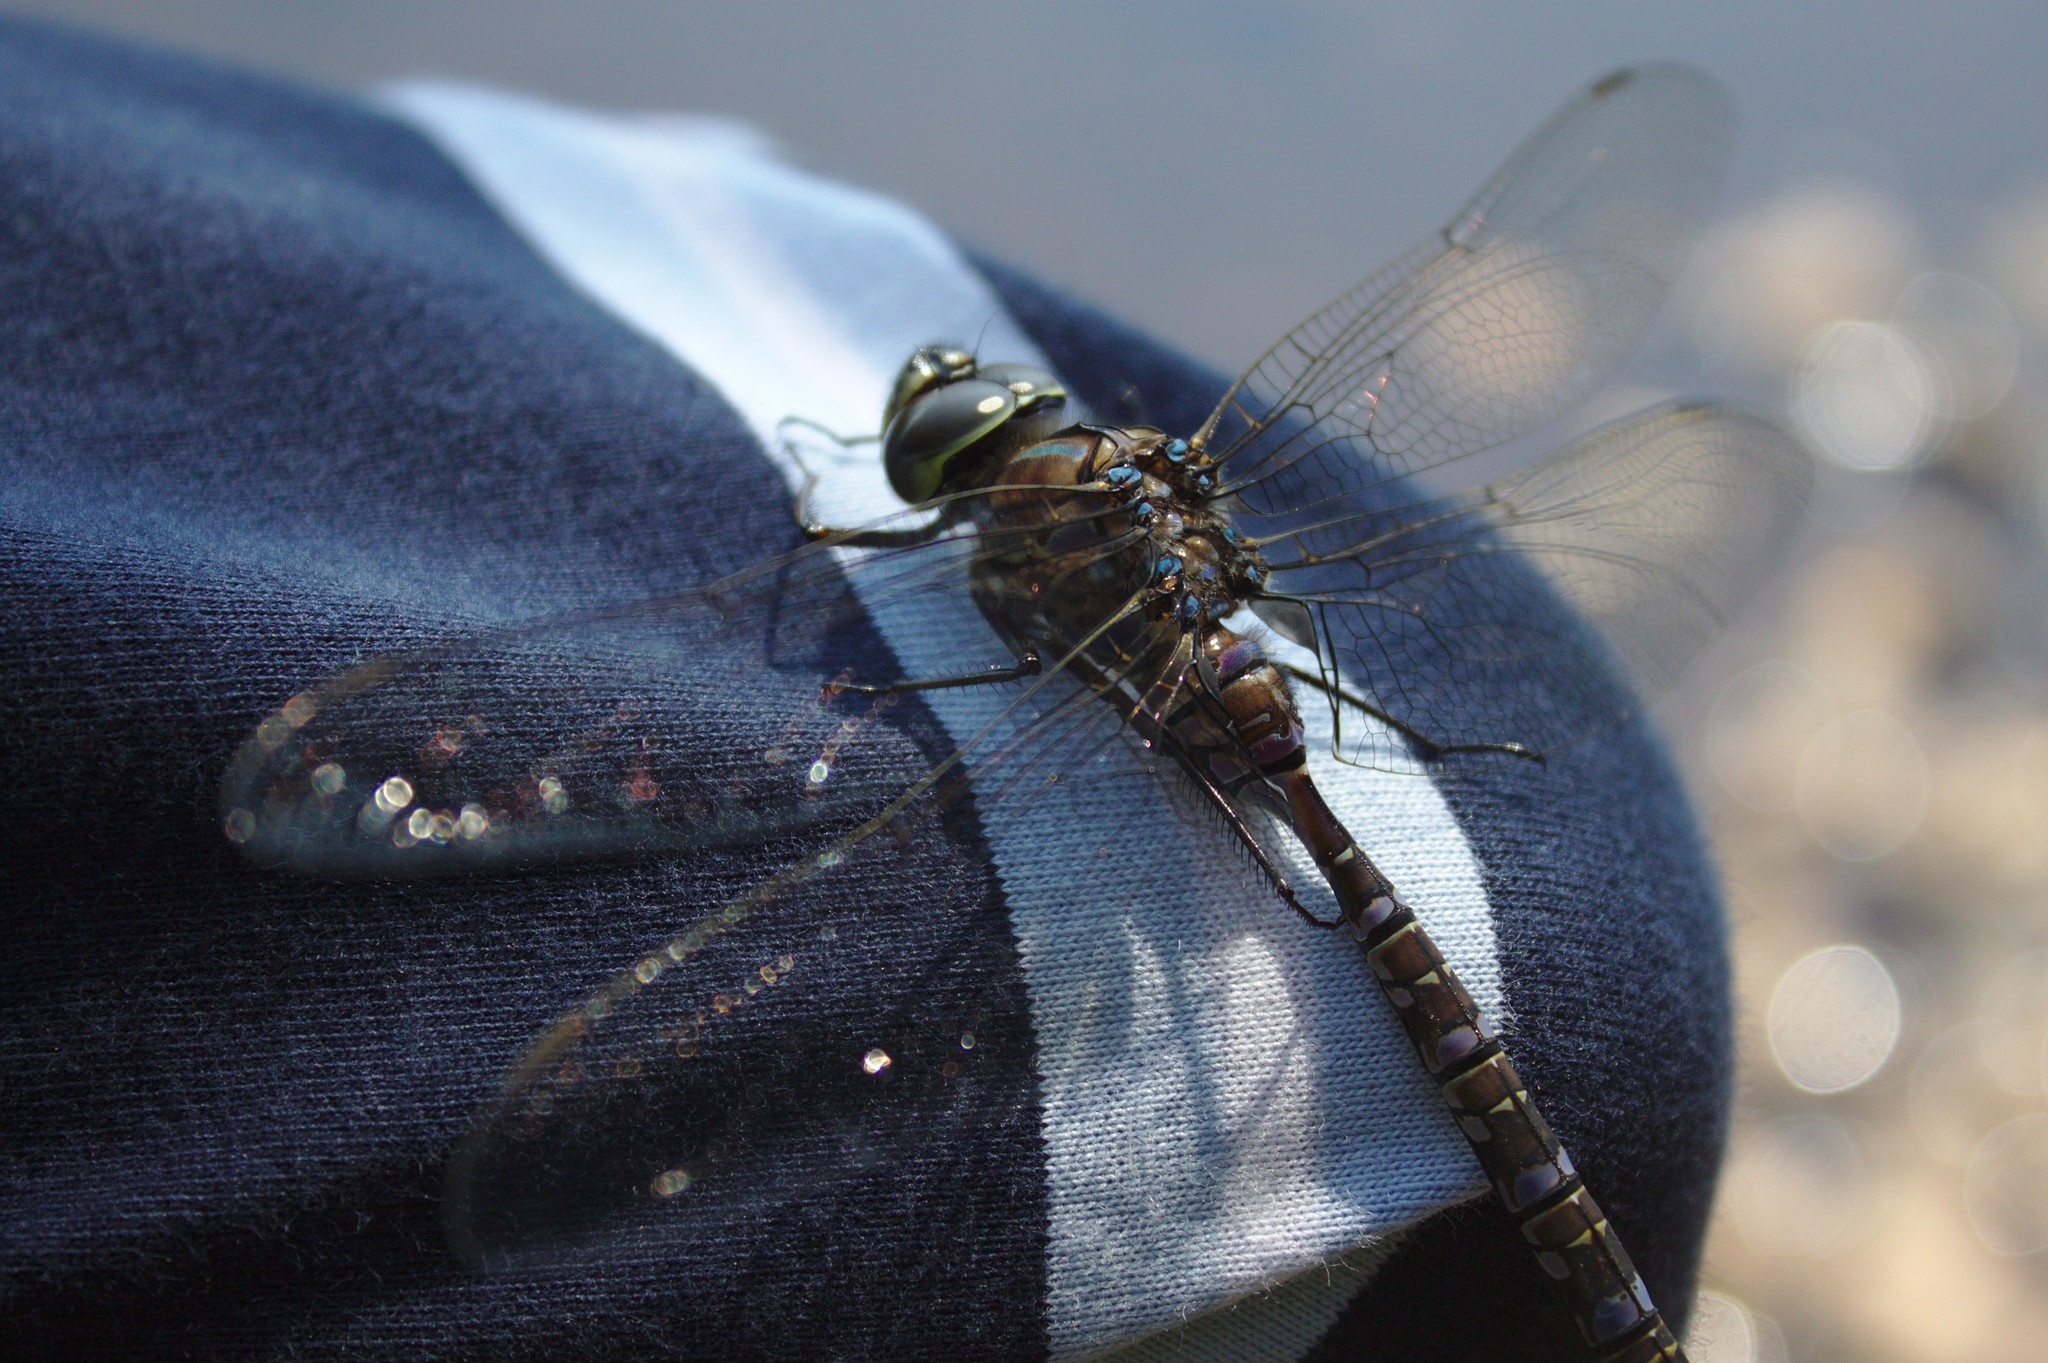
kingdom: Animalia
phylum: Arthropoda
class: Insecta
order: Odonata
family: Aeshnidae
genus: Aeshna
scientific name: Aeshna eremita
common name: Lake darner
